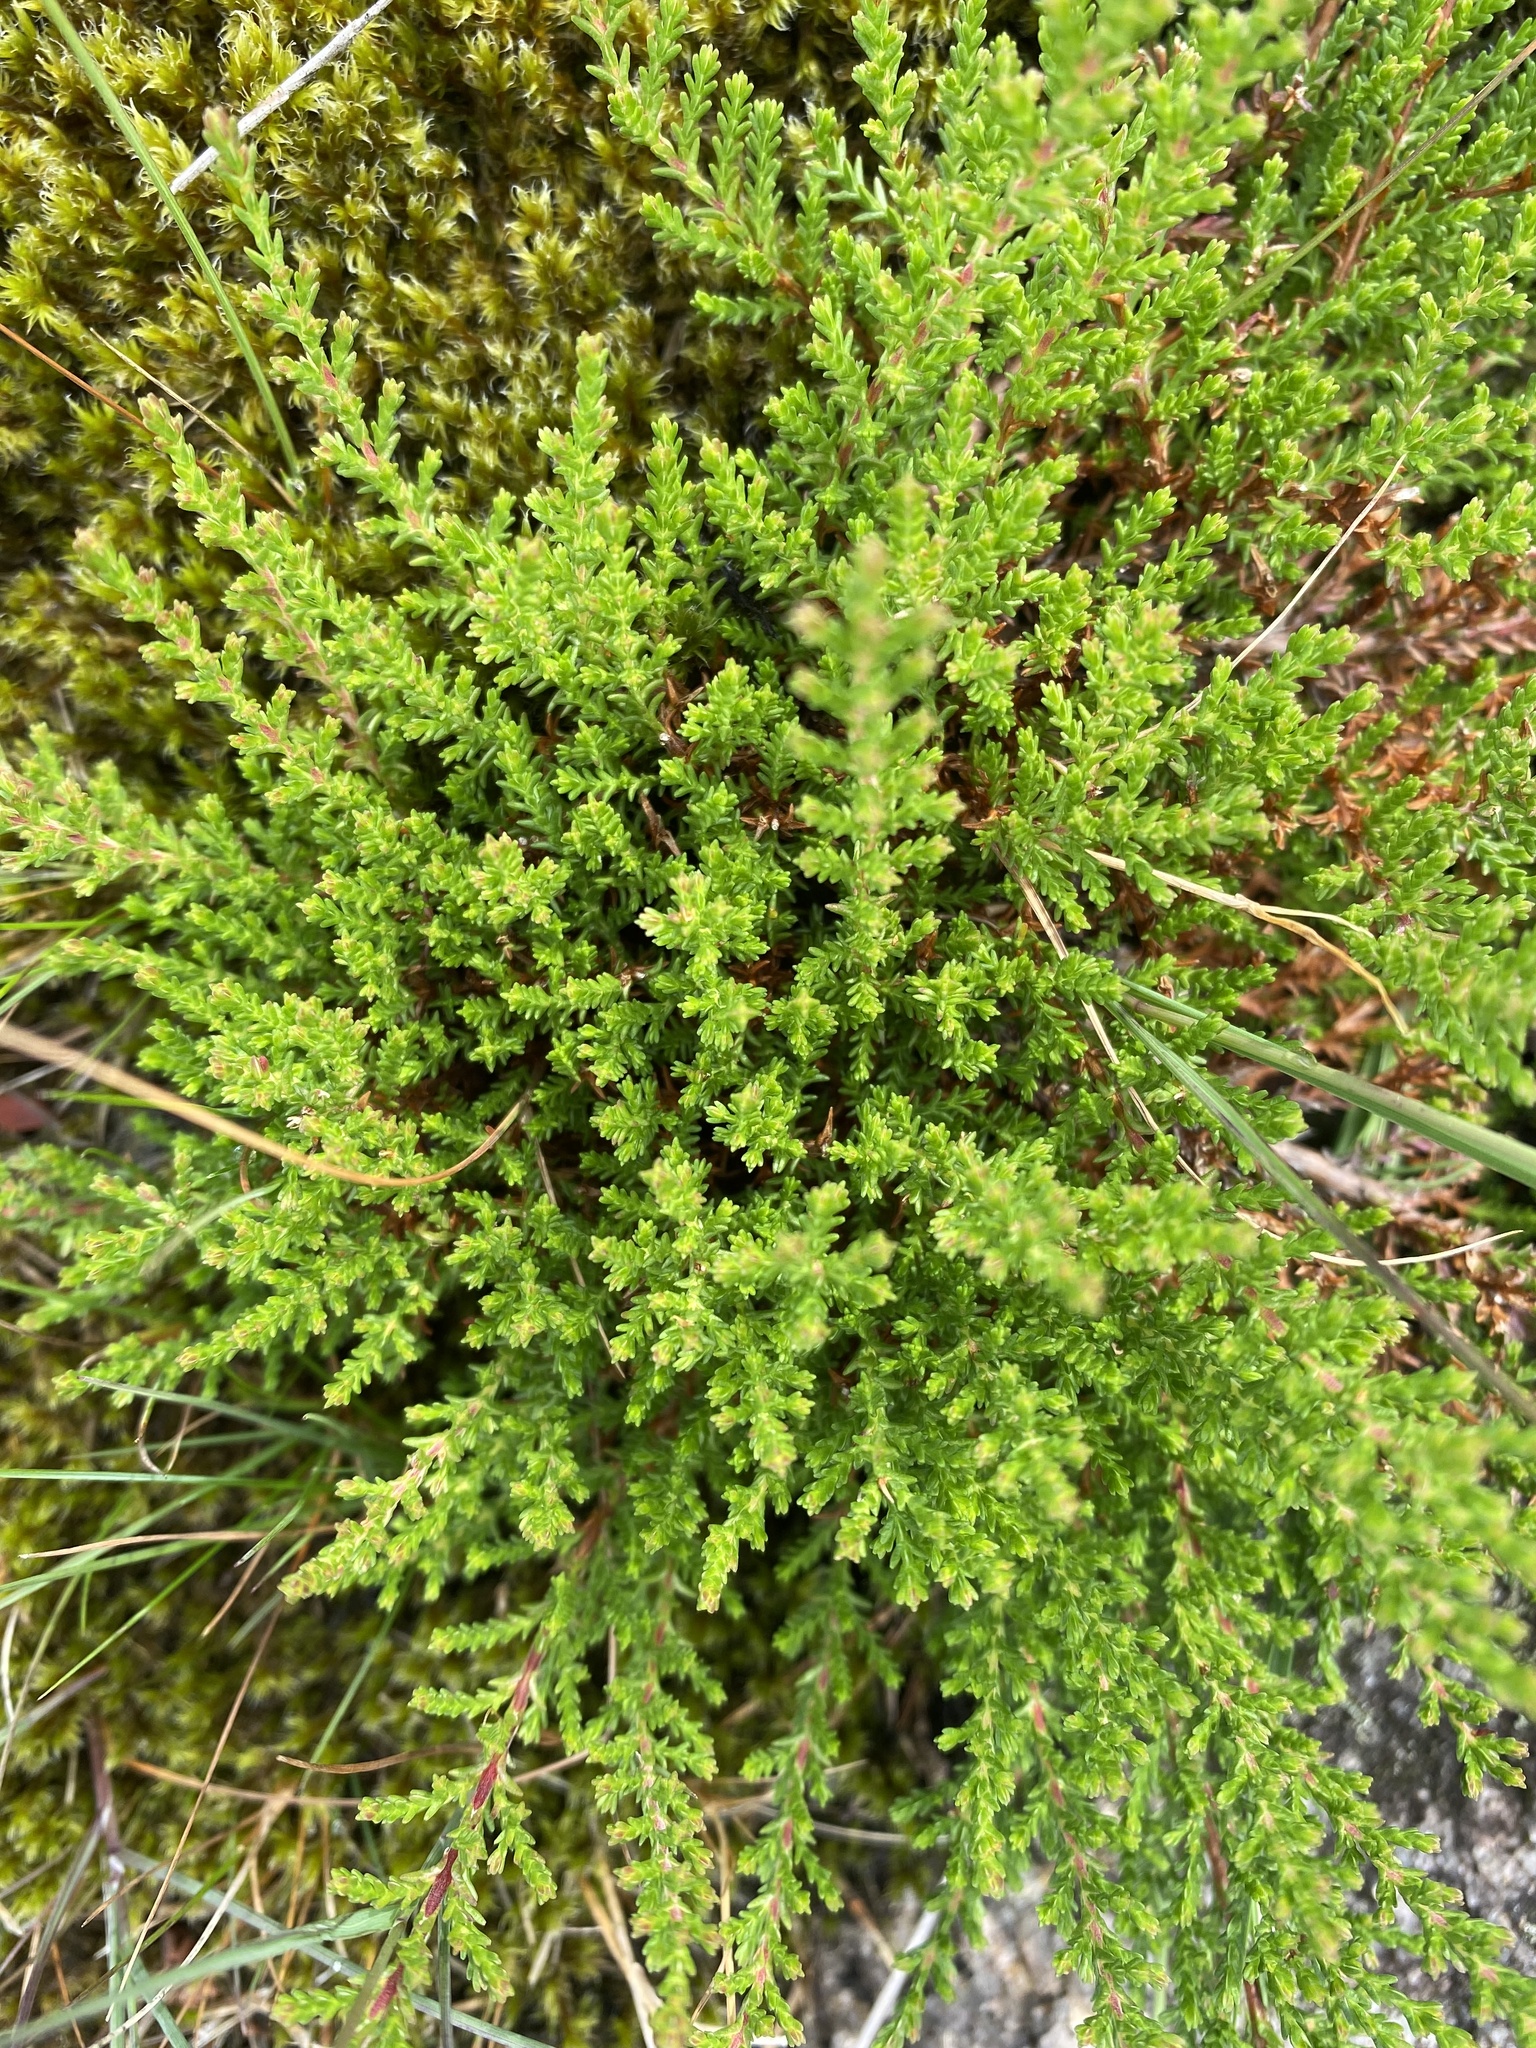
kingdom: Plantae
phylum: Tracheophyta
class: Magnoliopsida
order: Ericales
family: Ericaceae
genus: Calluna
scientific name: Calluna vulgaris
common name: Heather
